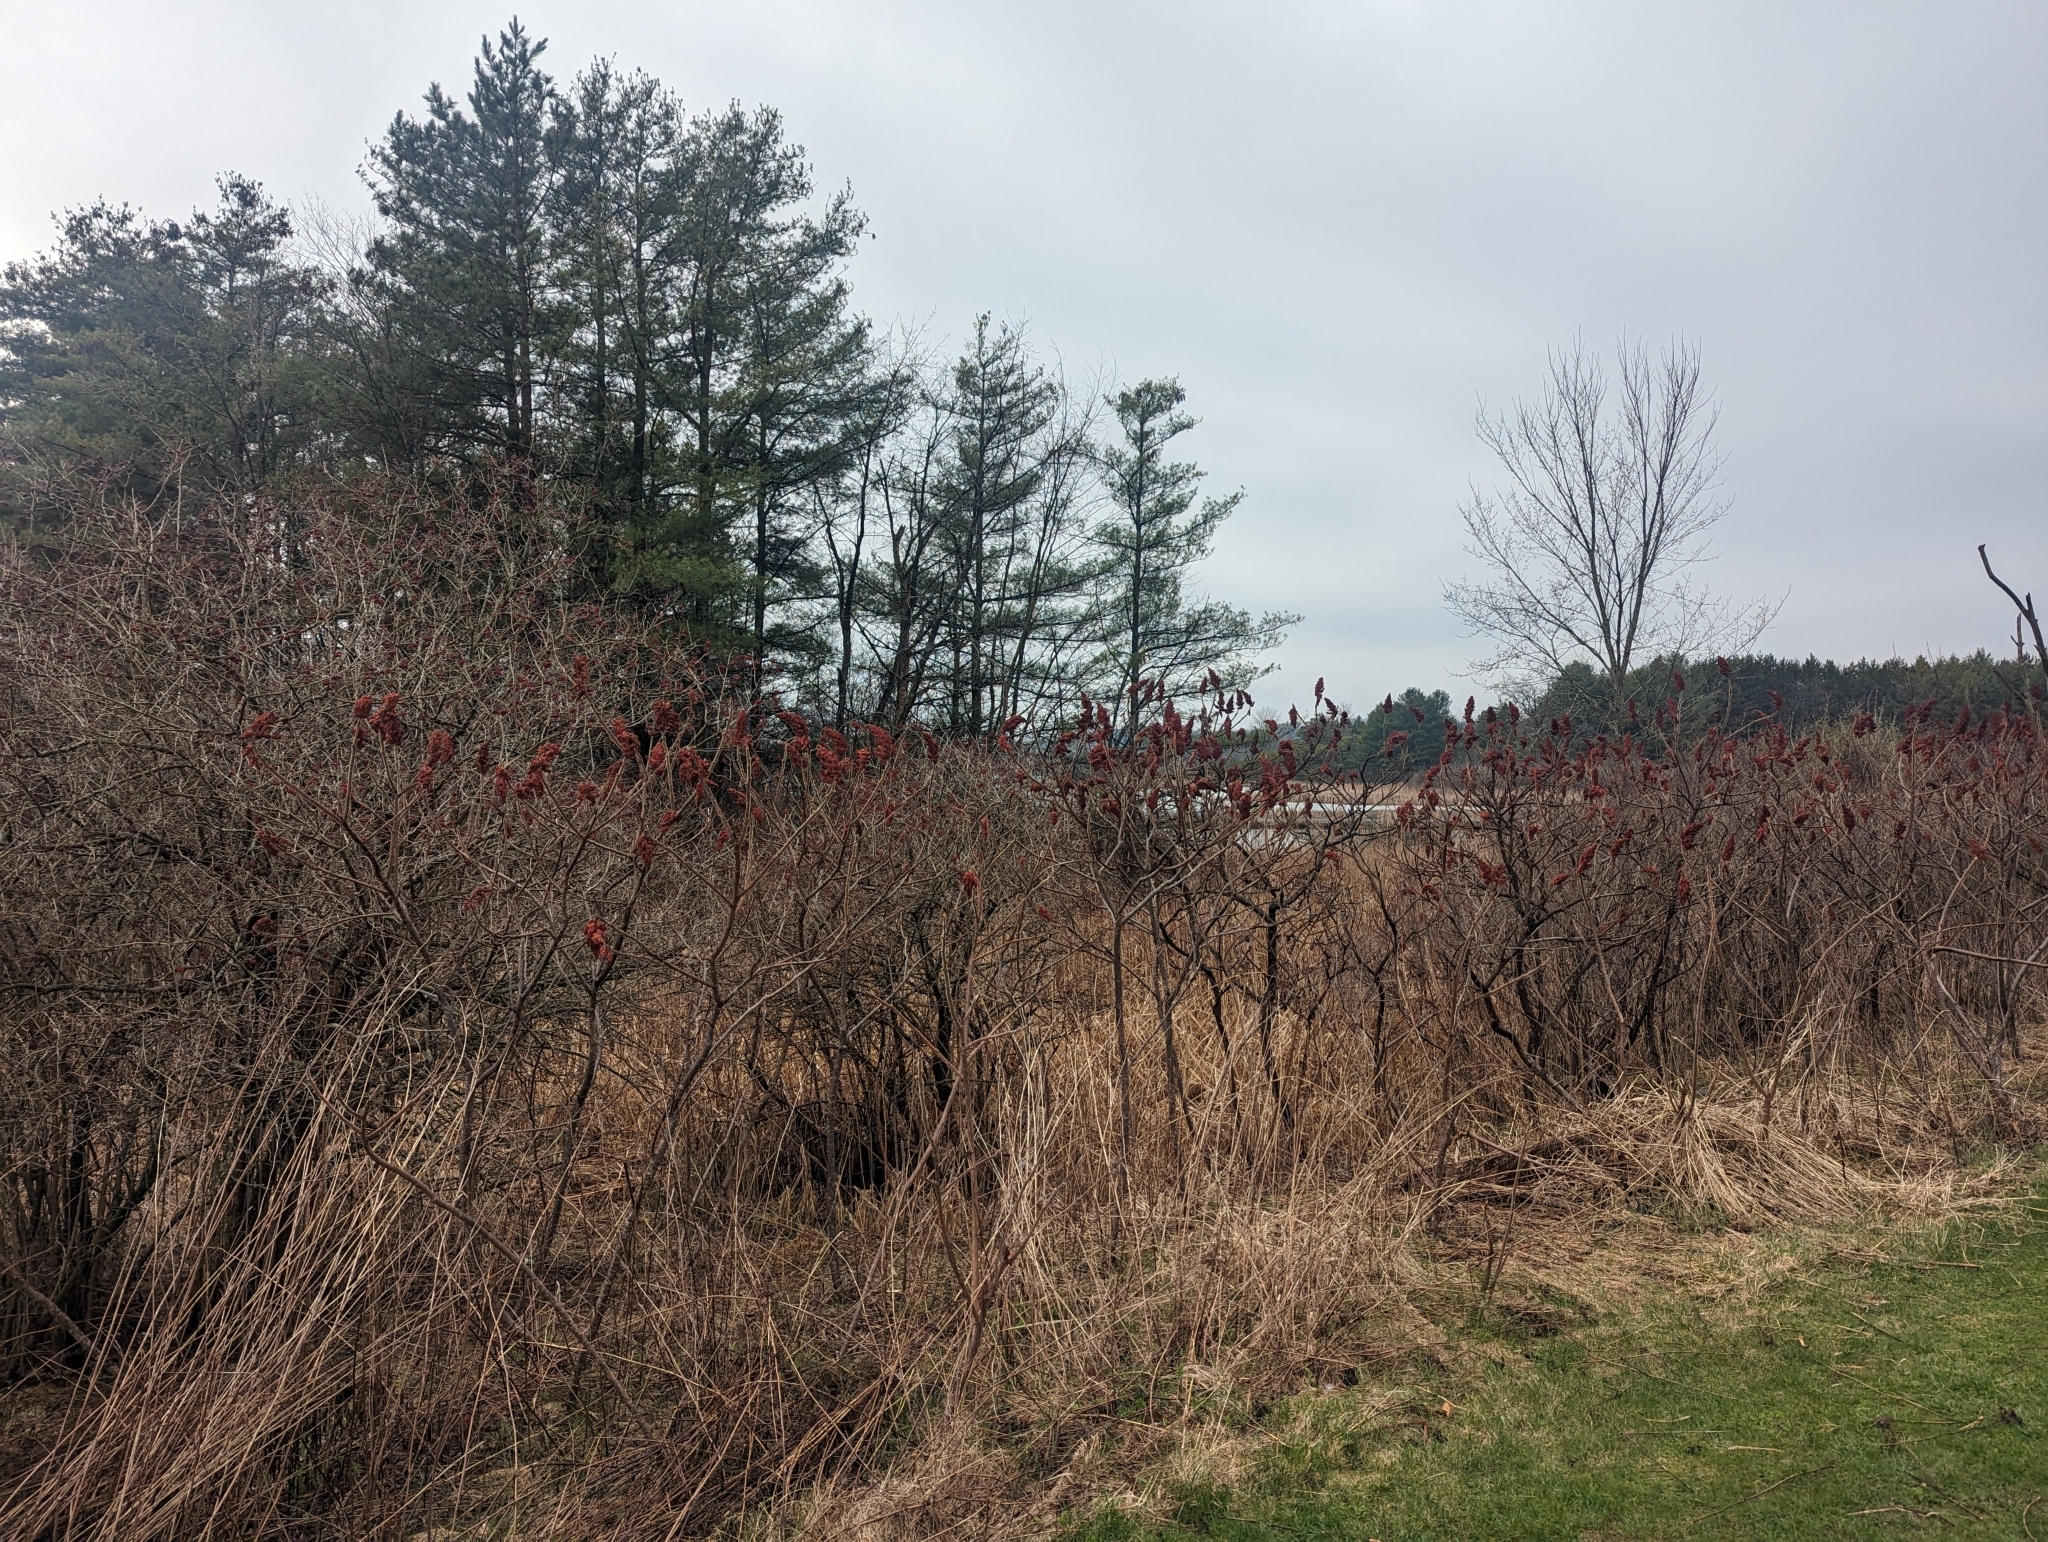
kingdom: Plantae
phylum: Tracheophyta
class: Magnoliopsida
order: Sapindales
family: Anacardiaceae
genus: Rhus
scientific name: Rhus typhina
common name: Staghorn sumac
